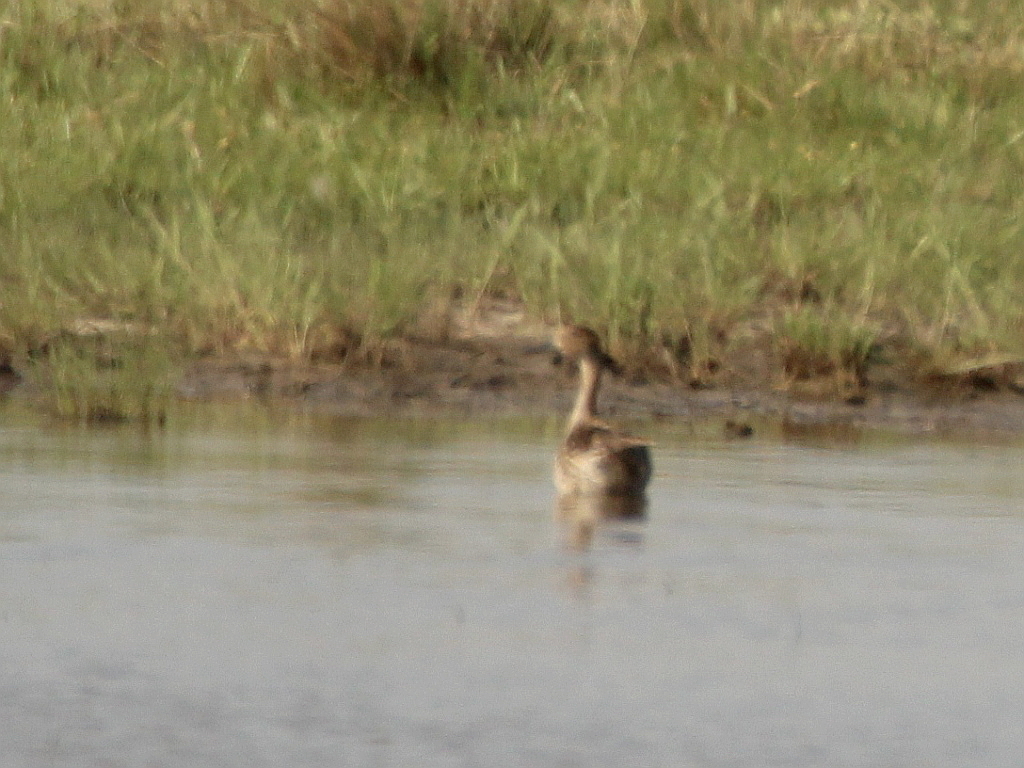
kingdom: Animalia
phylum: Chordata
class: Aves
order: Anseriformes
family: Anatidae
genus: Anas
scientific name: Anas acuta
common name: Northern pintail
